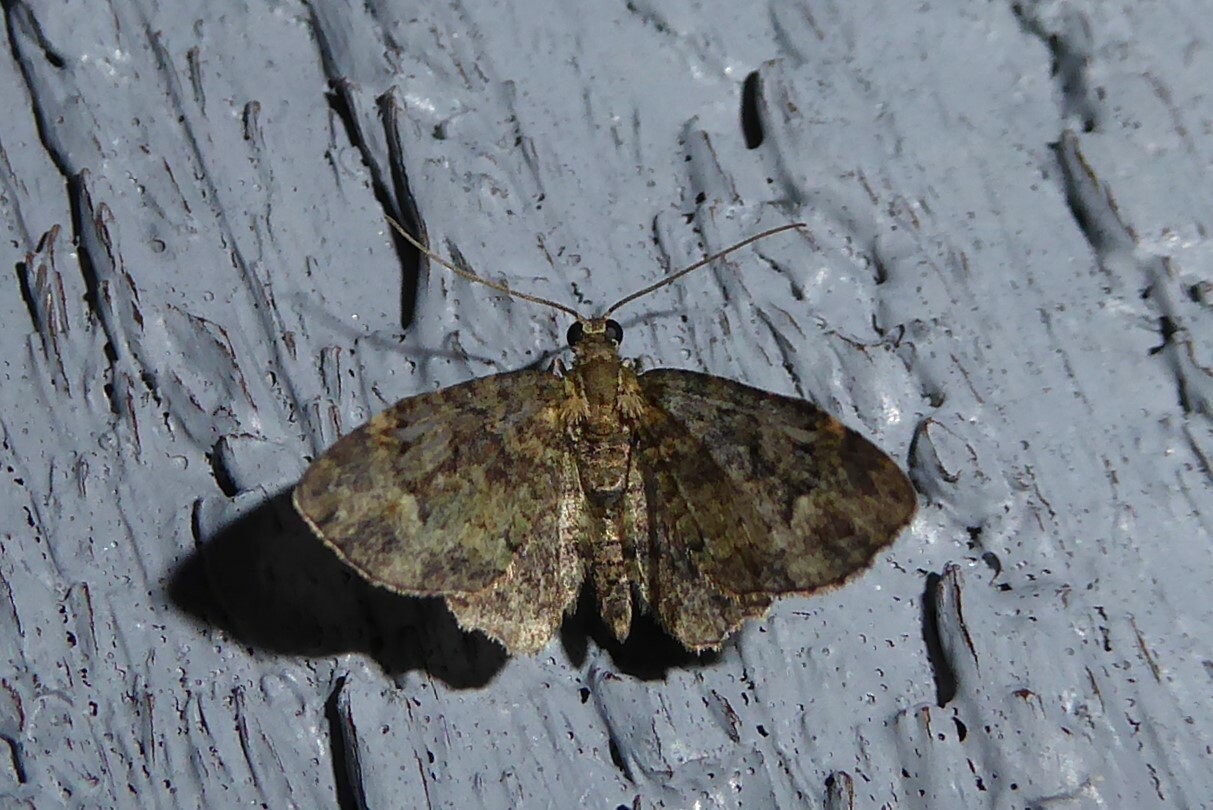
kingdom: Animalia
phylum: Arthropoda
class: Insecta
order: Lepidoptera
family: Geometridae
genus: Idaea
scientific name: Idaea mutanda
